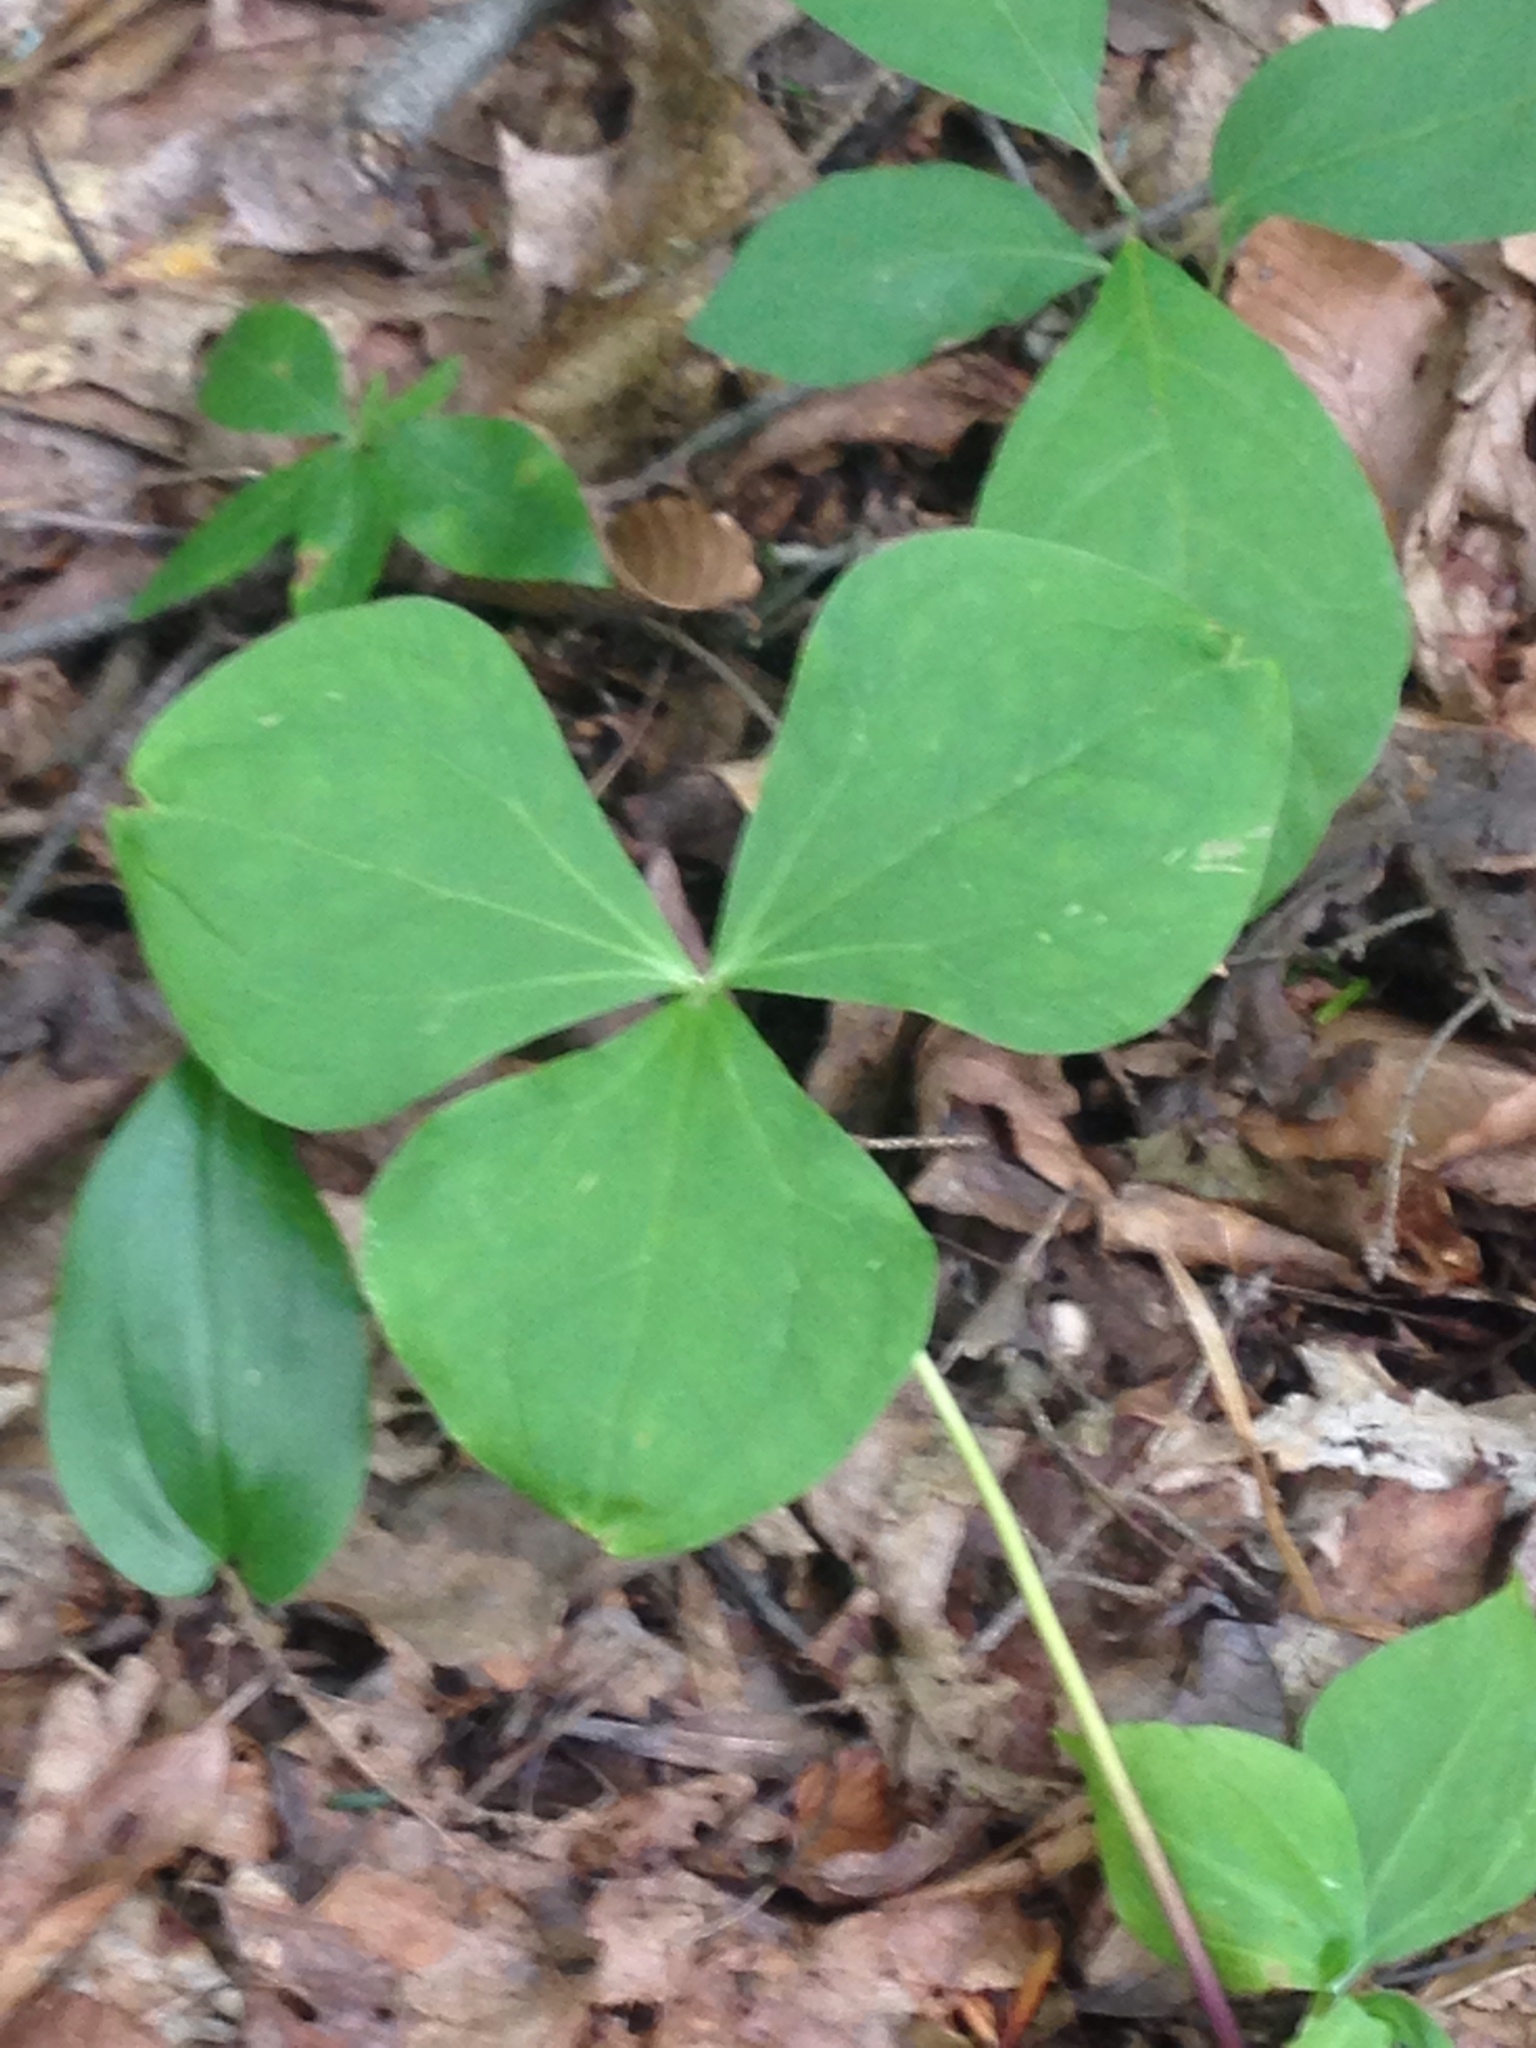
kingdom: Plantae
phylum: Tracheophyta
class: Liliopsida
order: Liliales
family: Melanthiaceae
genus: Trillium
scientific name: Trillium
